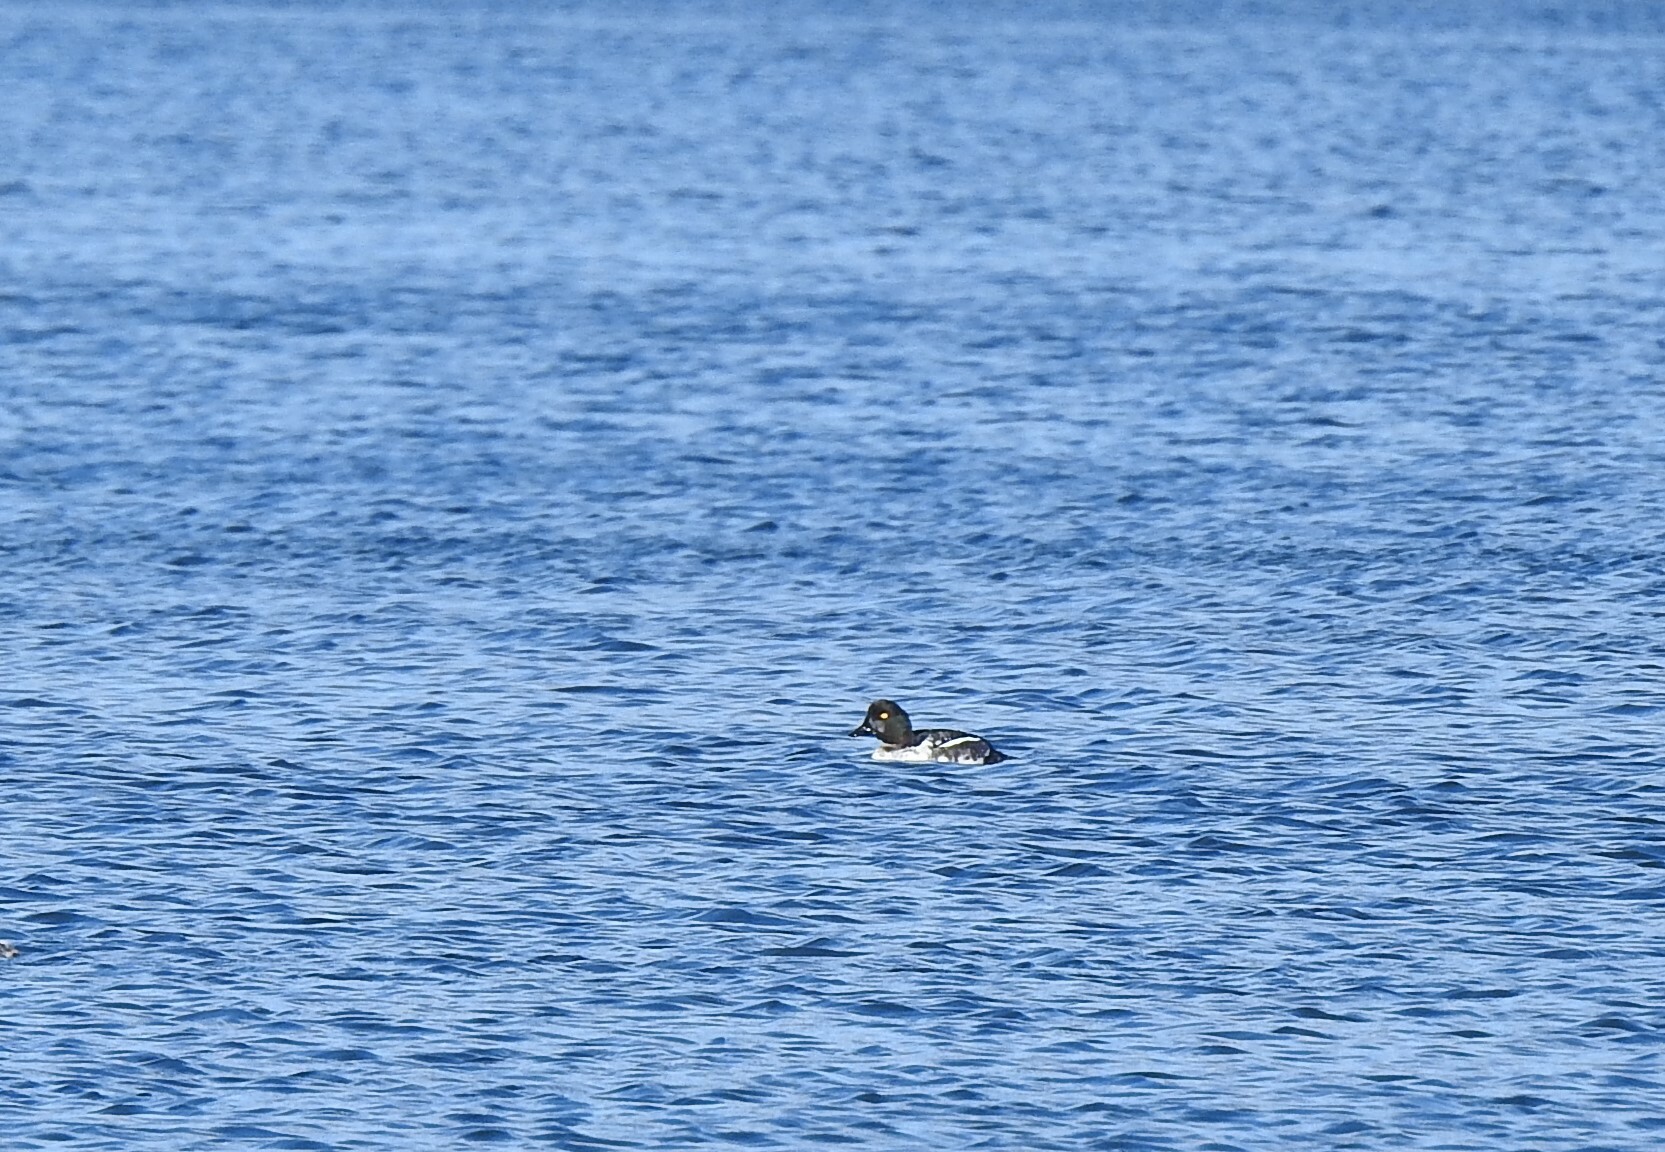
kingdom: Animalia
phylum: Chordata
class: Aves
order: Anseriformes
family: Anatidae
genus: Bucephala
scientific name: Bucephala clangula
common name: Common goldeneye
